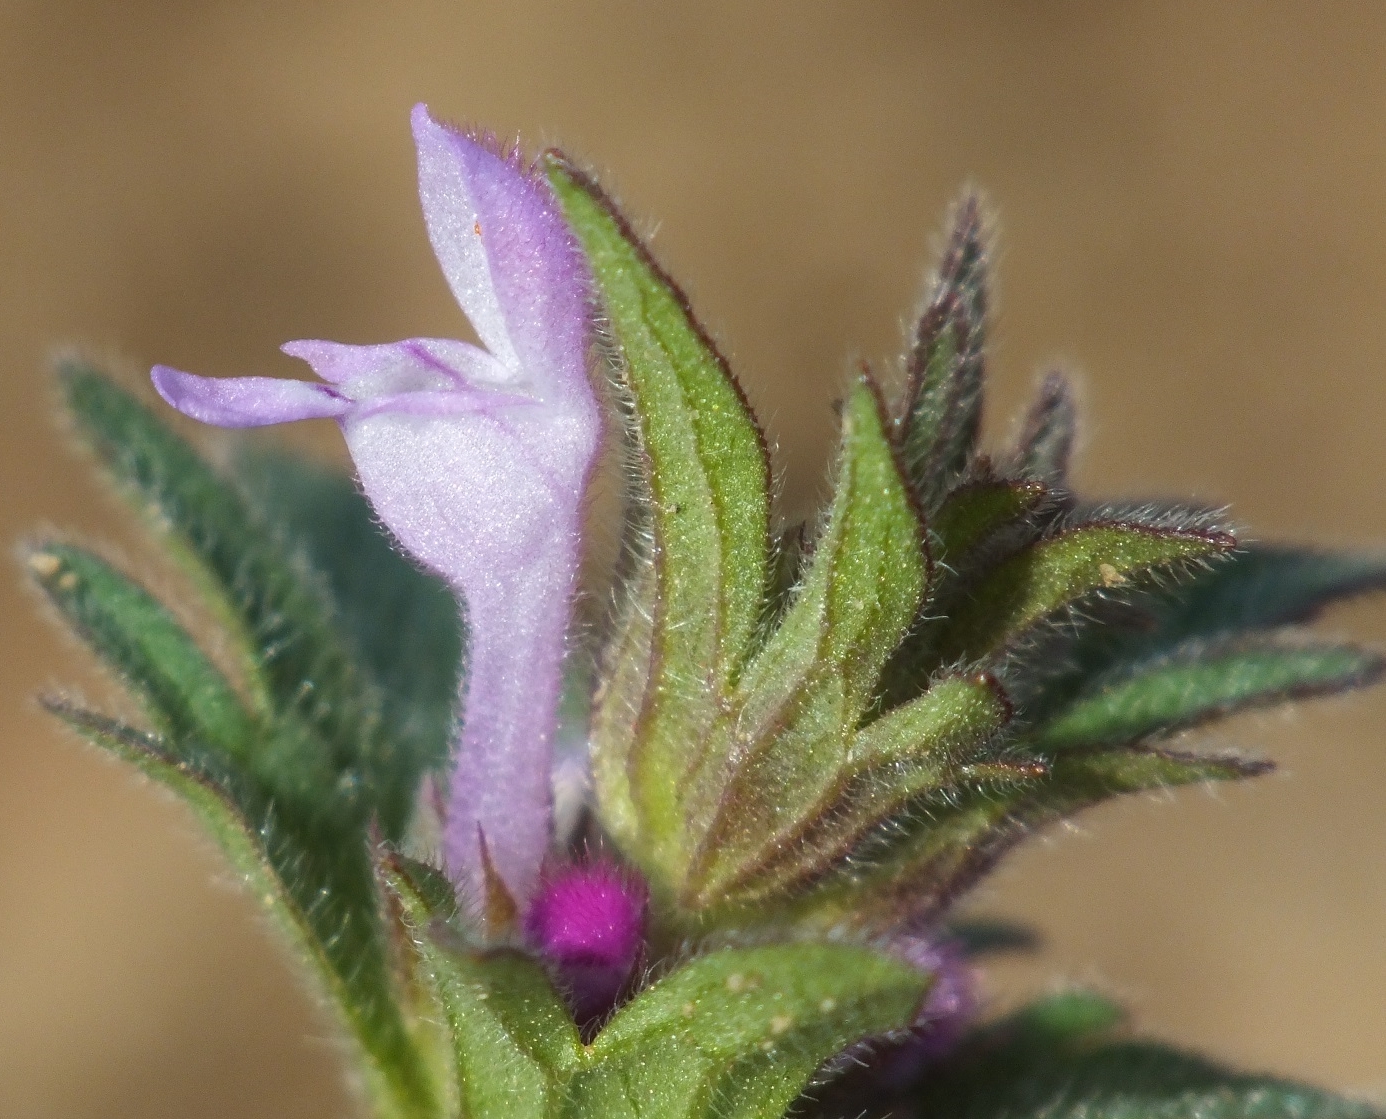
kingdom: Plantae
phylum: Tracheophyta
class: Magnoliopsida
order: Lamiales
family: Lamiaceae
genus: Lamium
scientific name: Lamium amplexicaule
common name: Henbit dead-nettle
